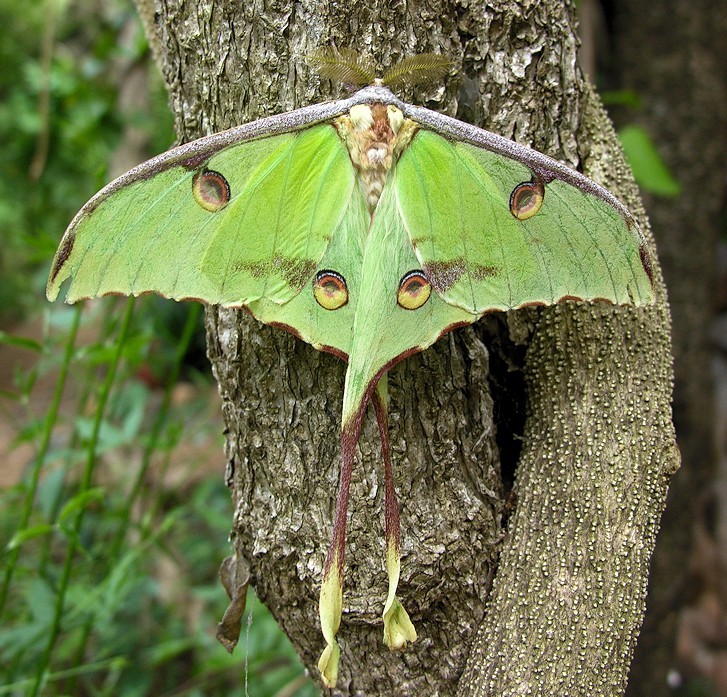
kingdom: Animalia
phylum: Arthropoda
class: Insecta
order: Lepidoptera
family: Saturniidae
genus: Argema
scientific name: Argema mimosae
